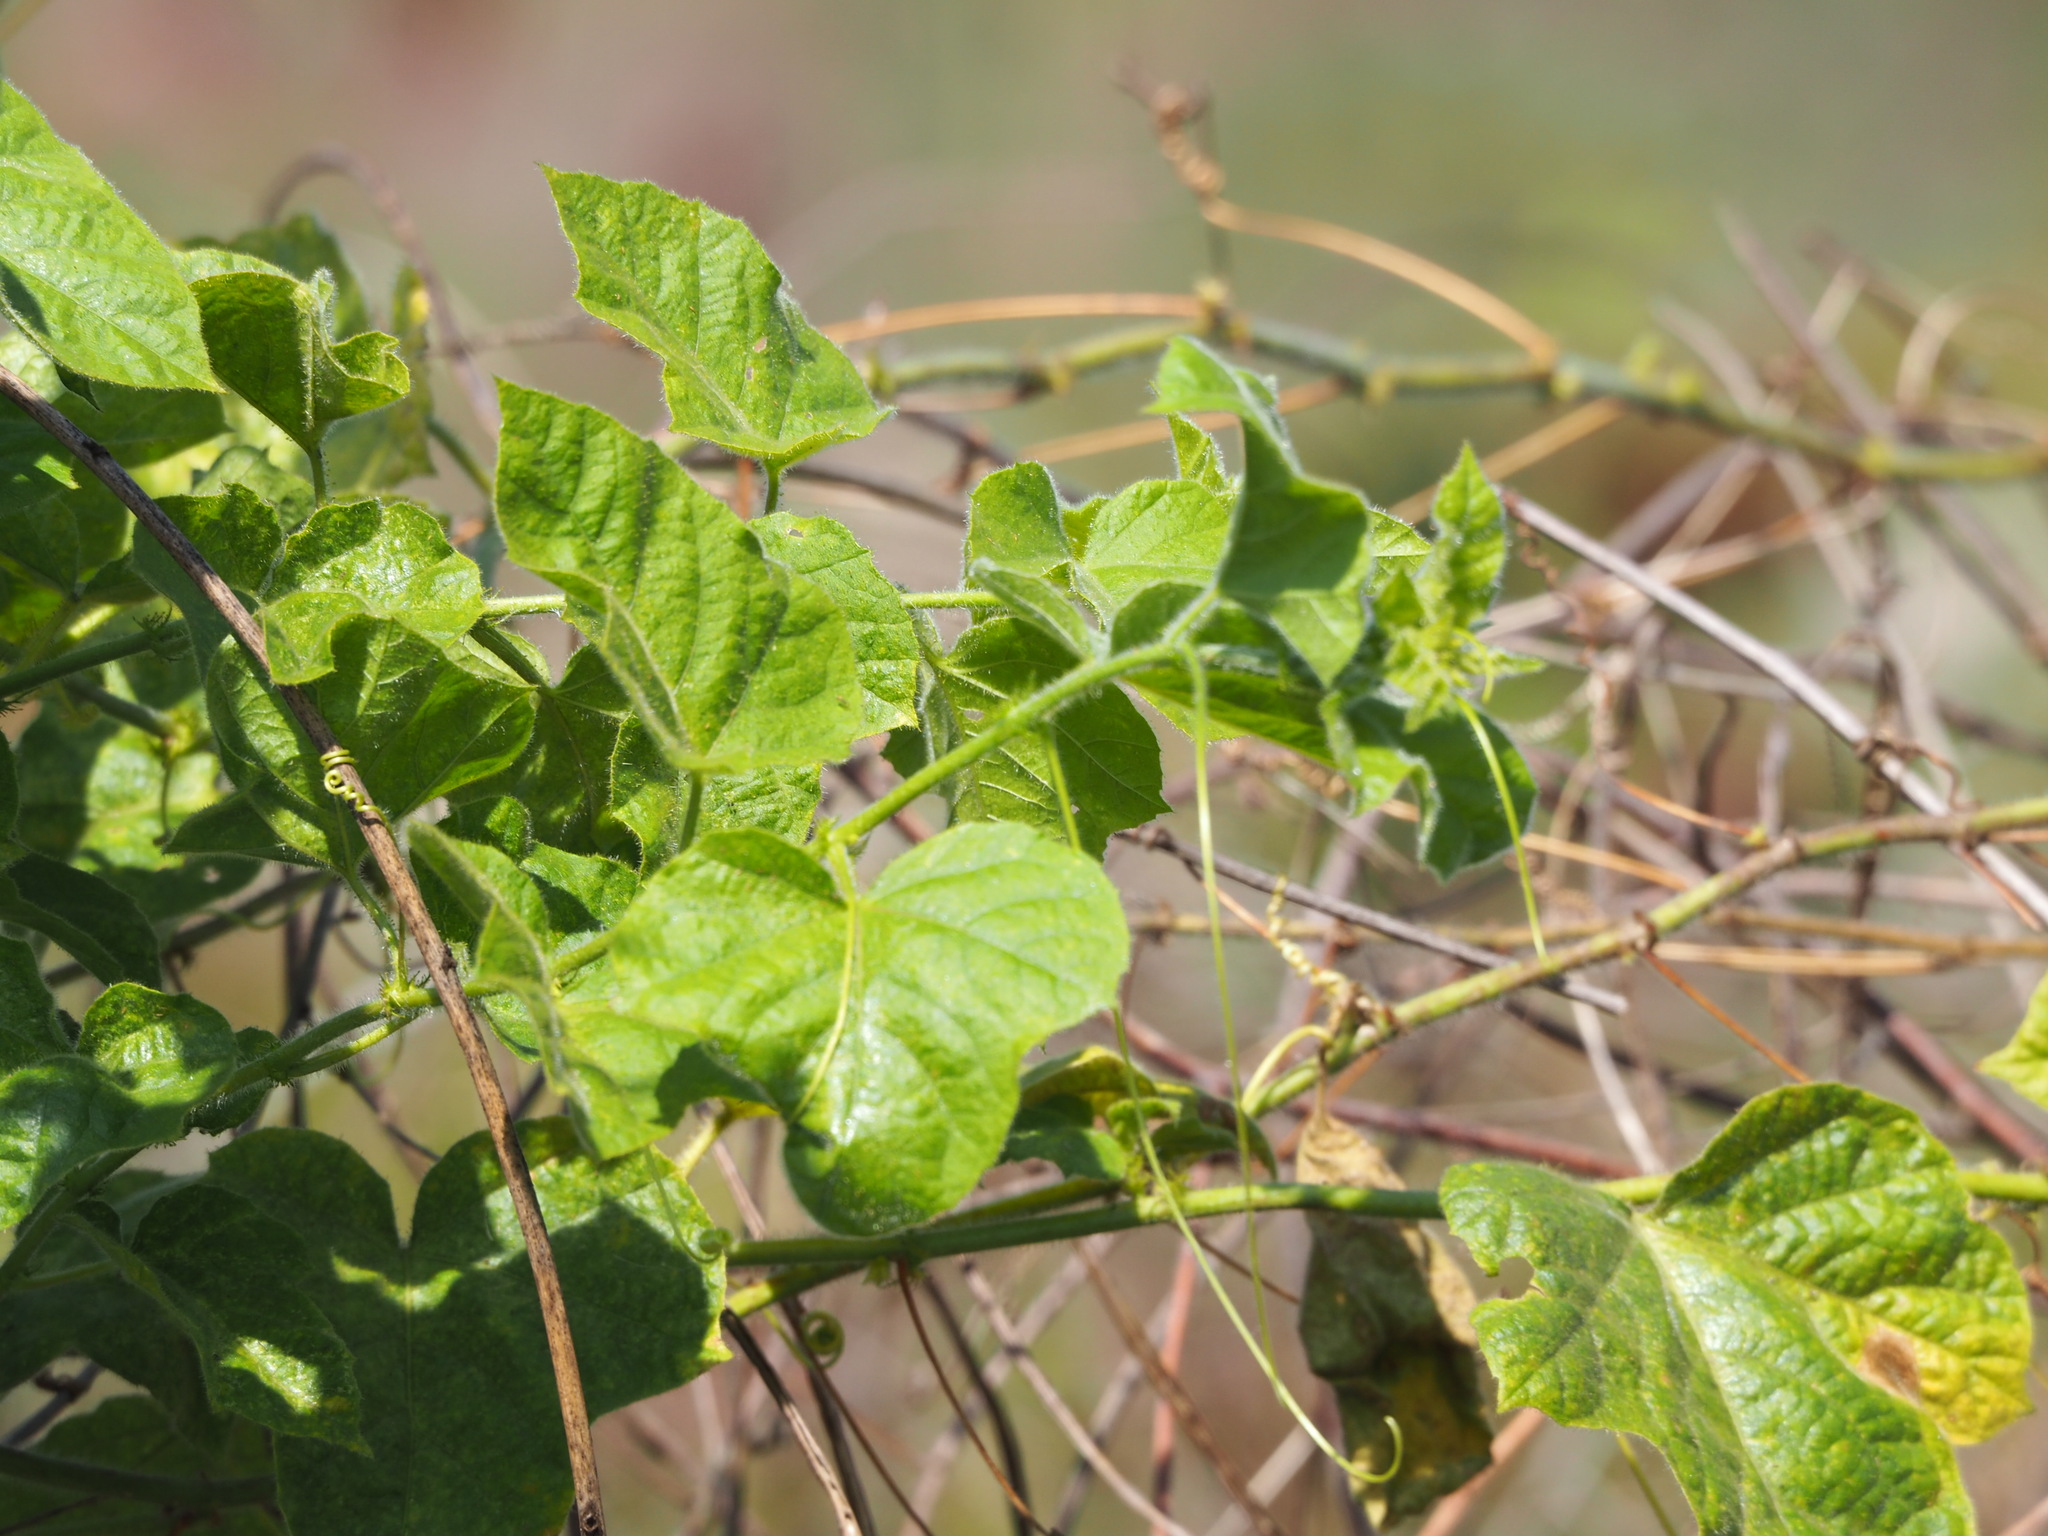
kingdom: Plantae
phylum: Tracheophyta
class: Magnoliopsida
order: Malpighiales
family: Passifloraceae
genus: Passiflora
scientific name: Passiflora vesicaria
